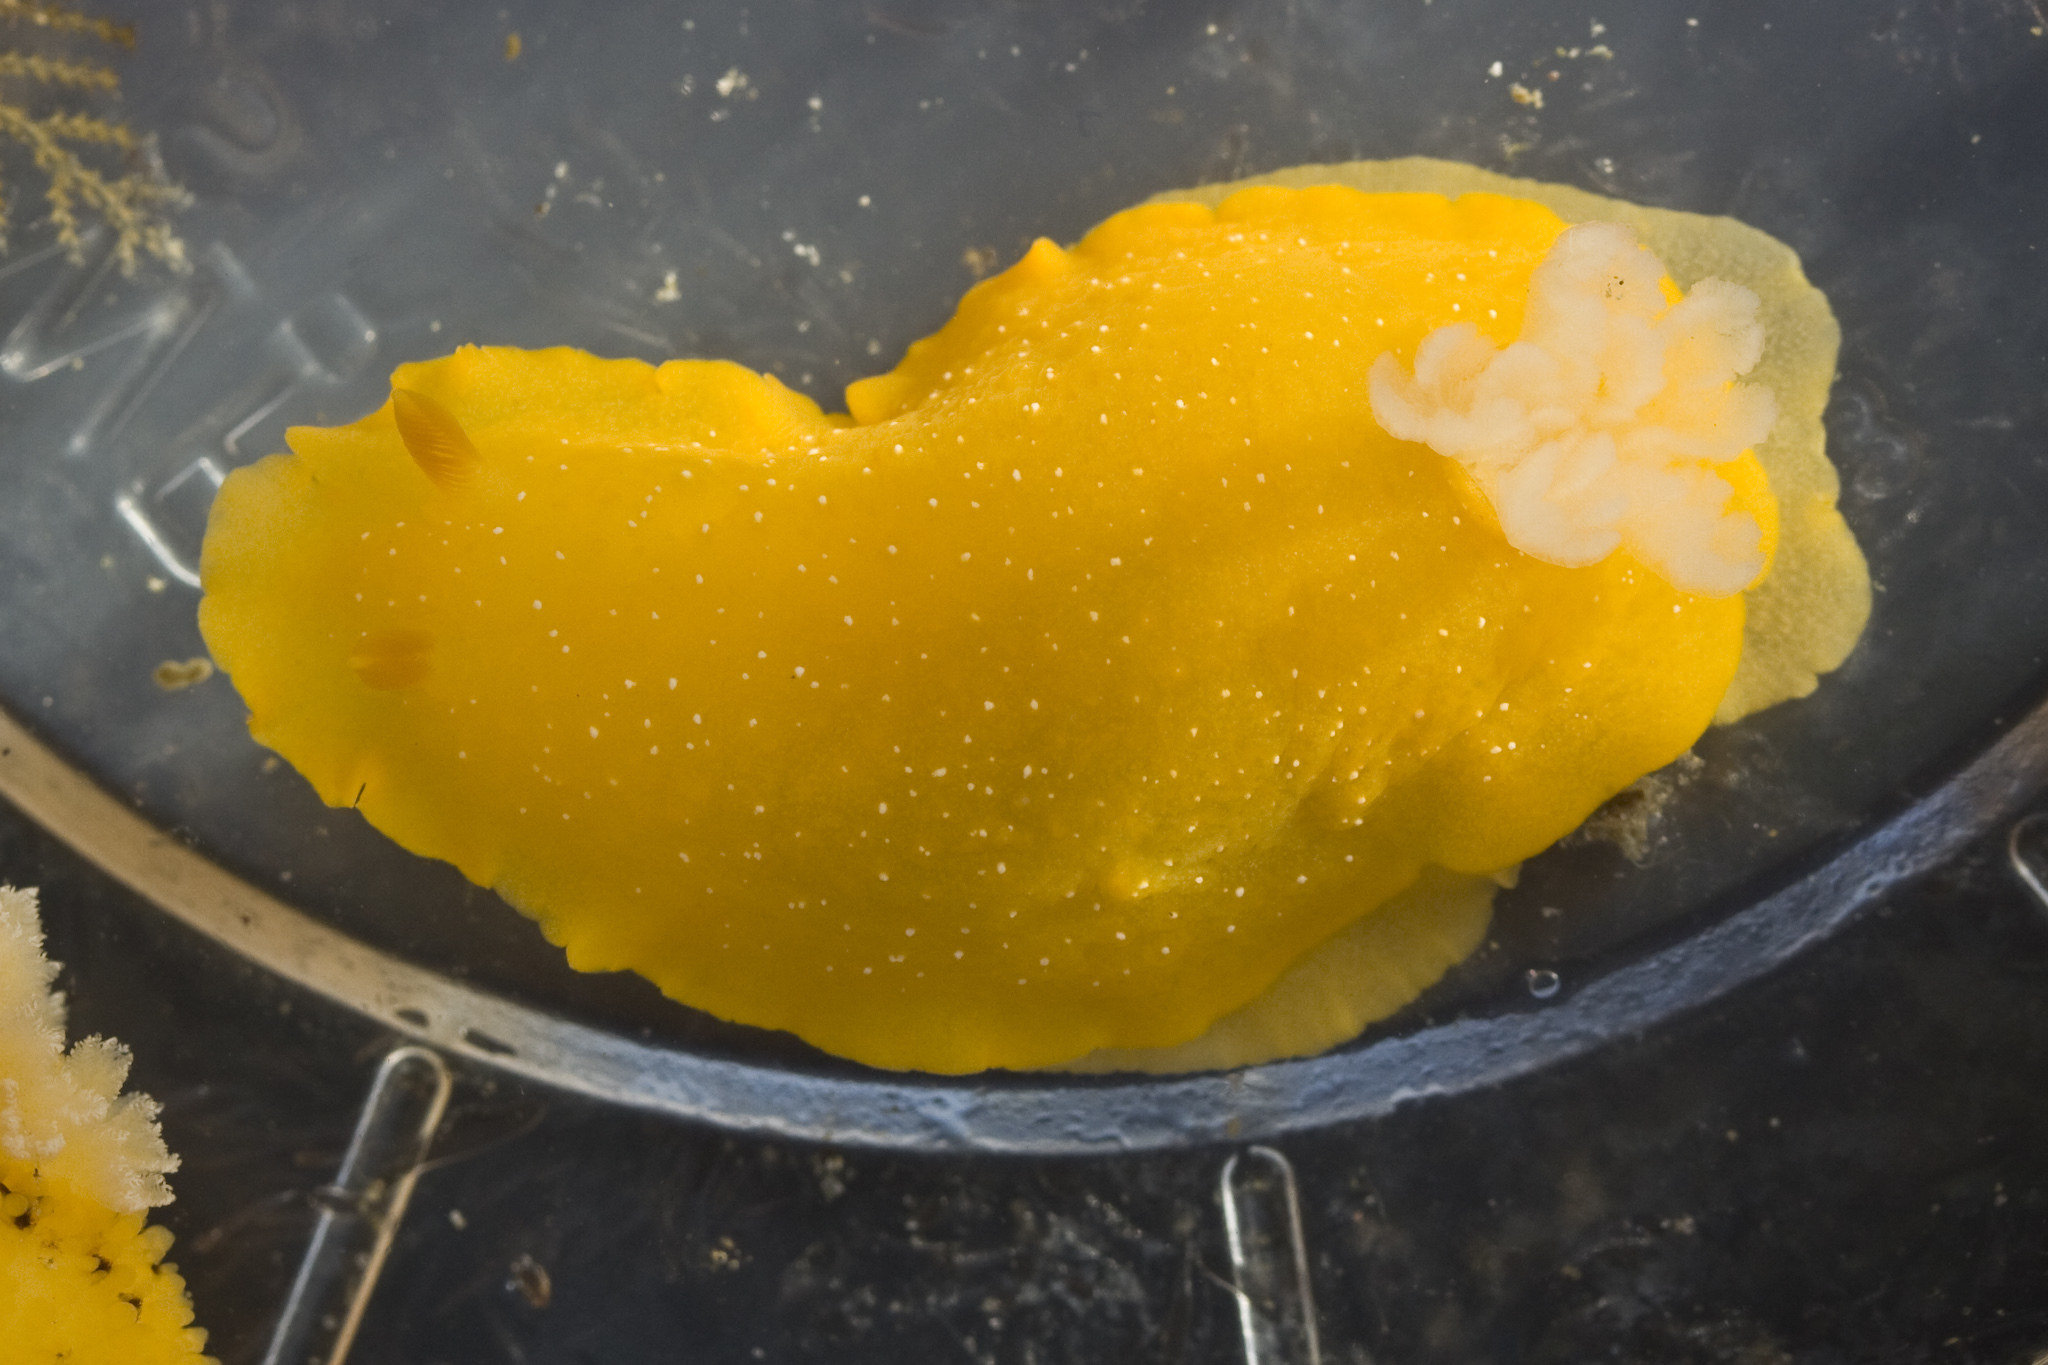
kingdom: Animalia
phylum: Mollusca
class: Gastropoda
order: Nudibranchia
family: Dendrodorididae
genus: Doriopsilla
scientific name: Doriopsilla fulva
